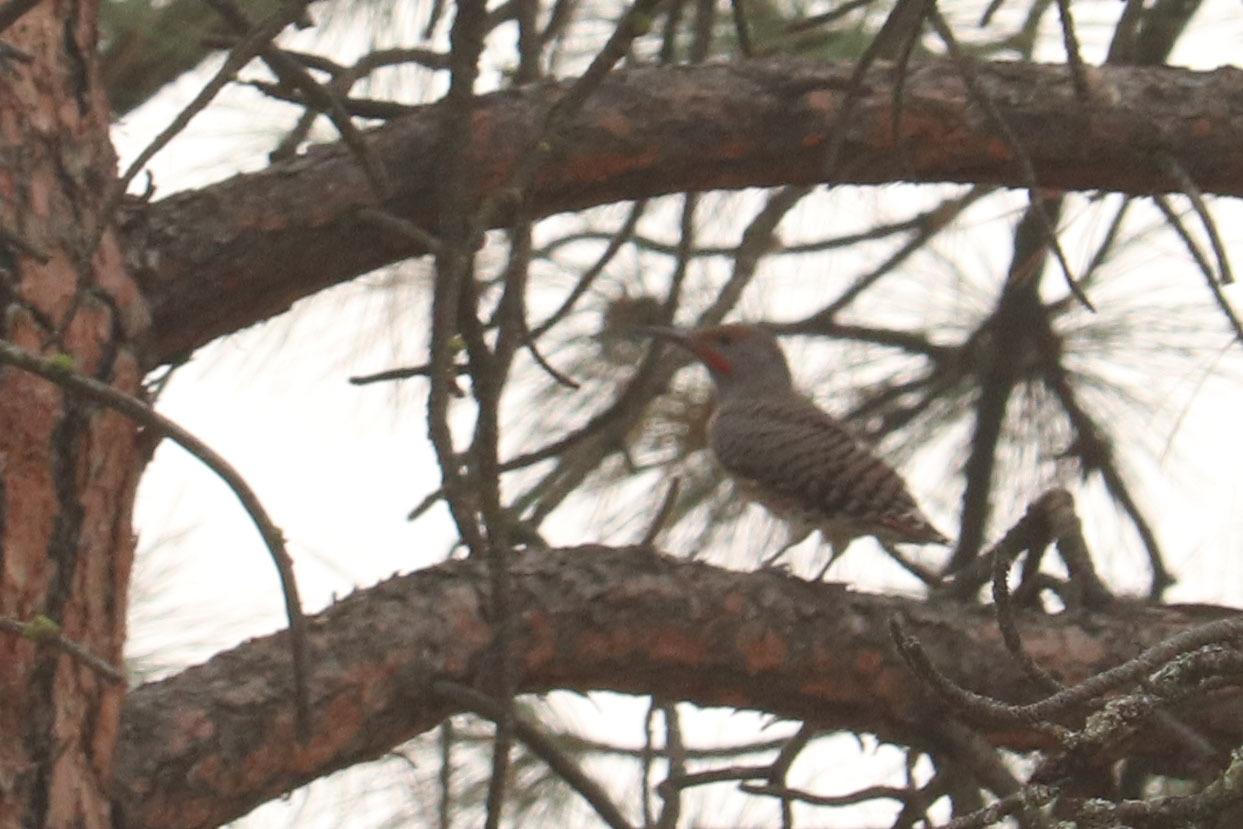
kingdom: Animalia
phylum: Chordata
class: Aves
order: Piciformes
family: Picidae
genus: Colaptes
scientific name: Colaptes auratus
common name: Northern flicker
